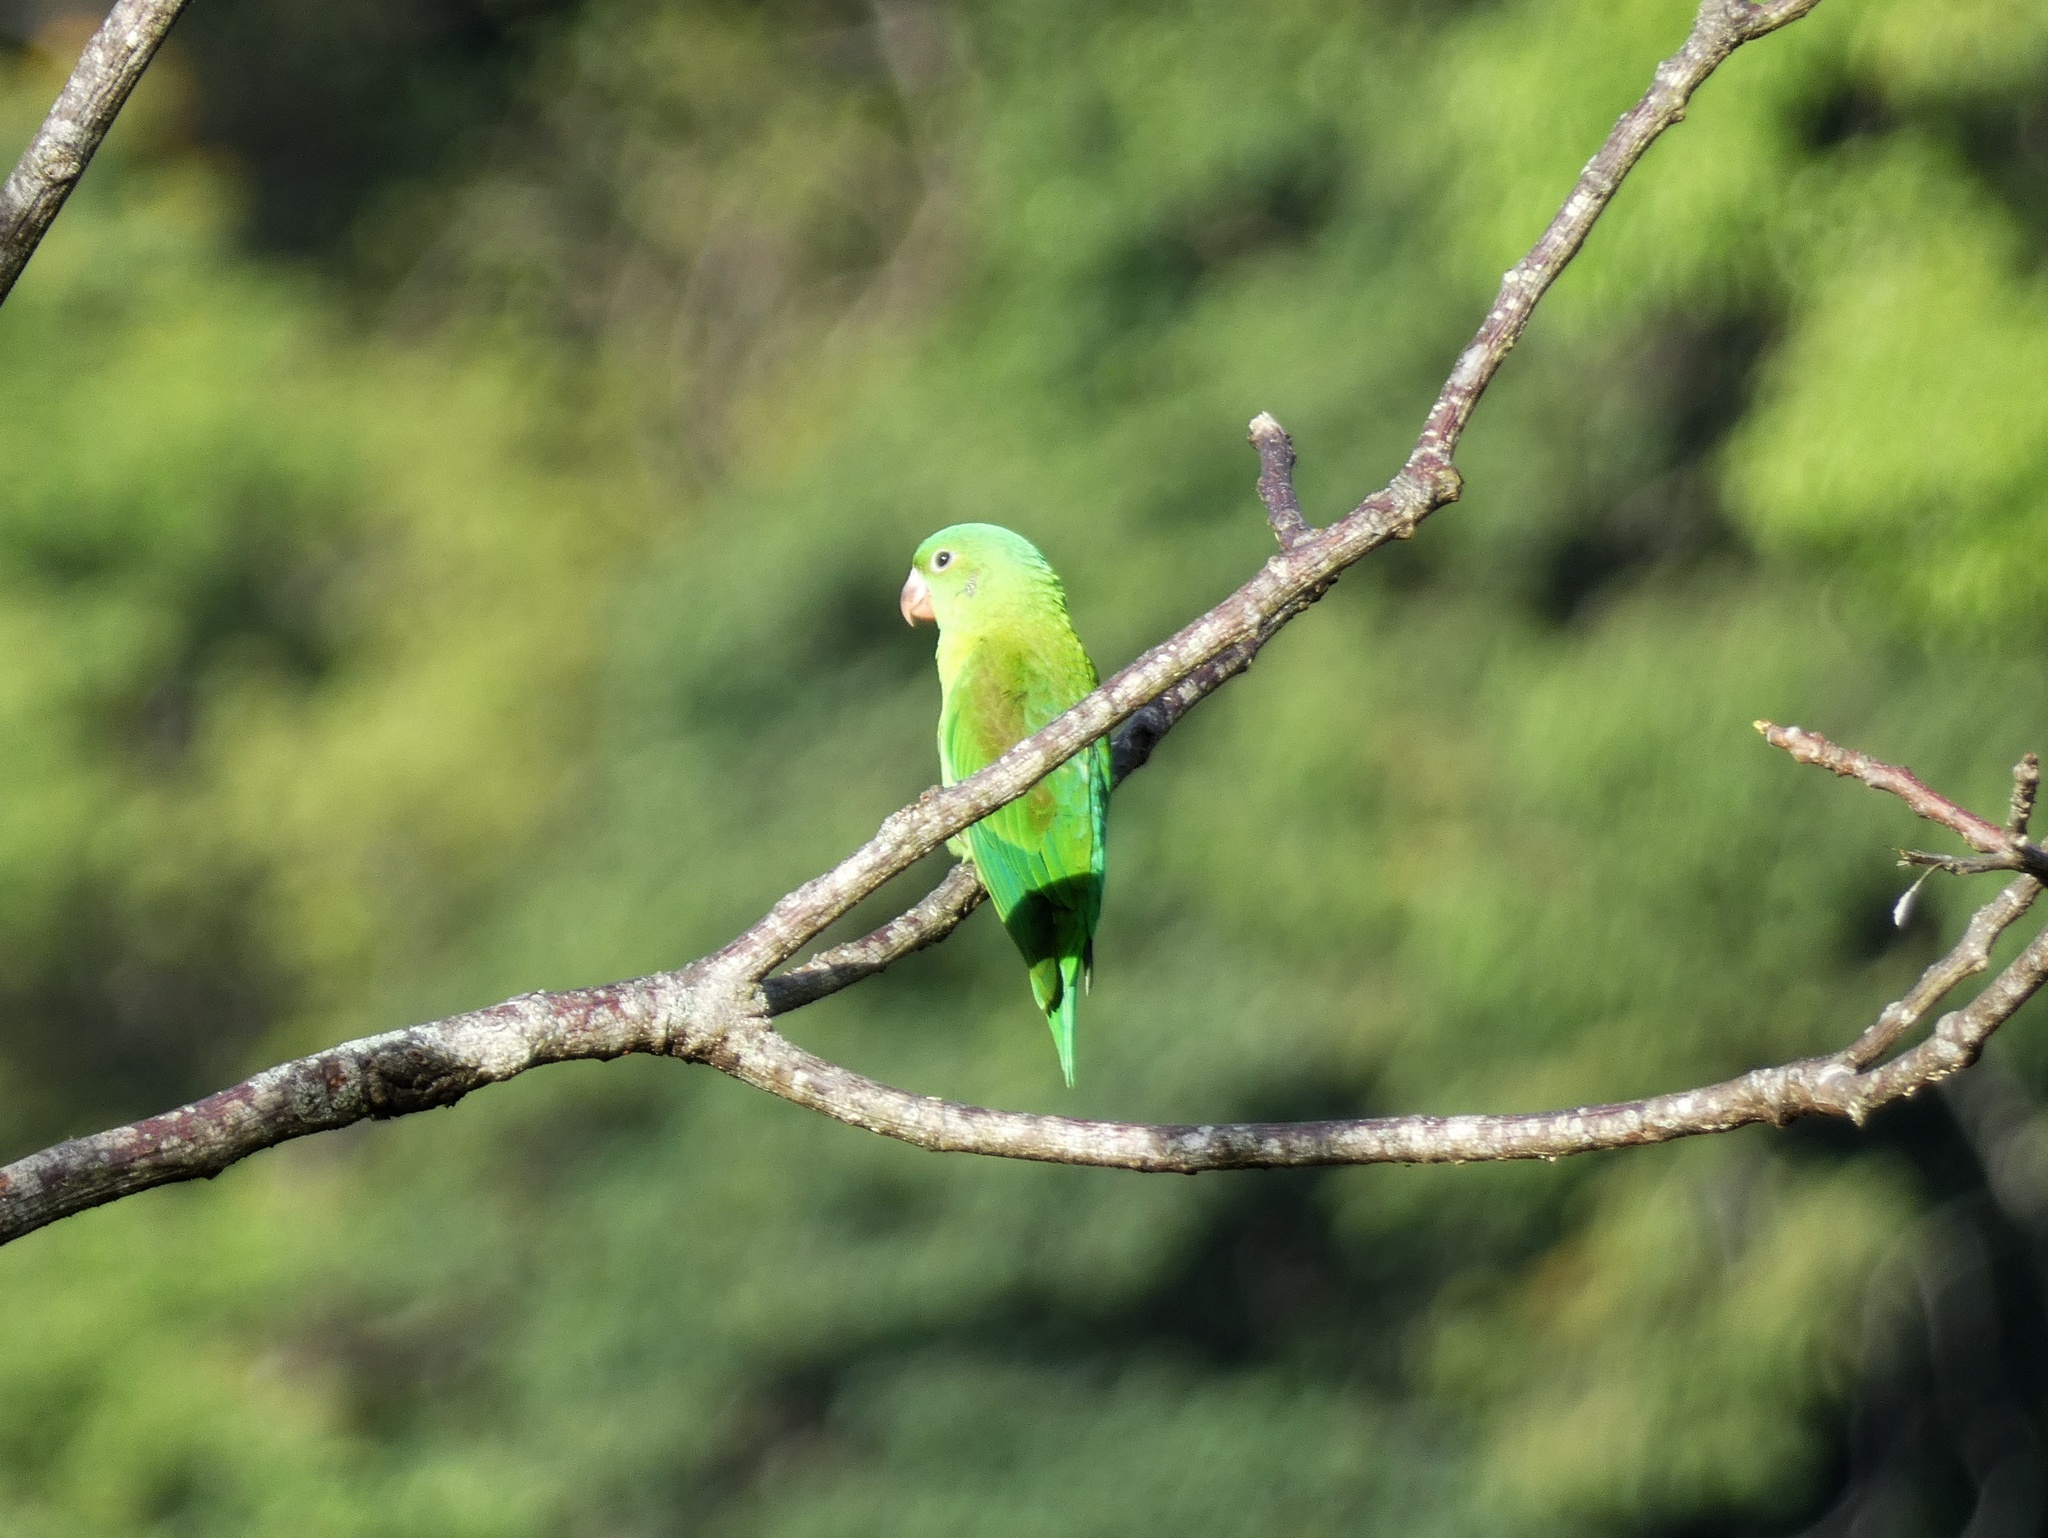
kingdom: Animalia
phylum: Chordata
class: Aves
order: Psittaciformes
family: Psittacidae
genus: Brotogeris
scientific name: Brotogeris jugularis
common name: Orange-chinned parakeet
